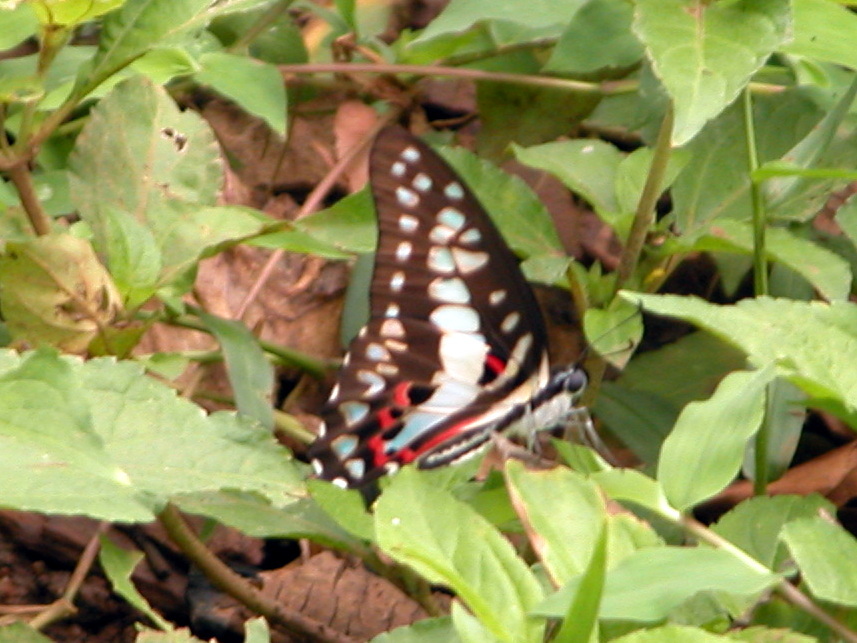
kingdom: Animalia
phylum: Arthropoda
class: Insecta
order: Lepidoptera
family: Papilionidae
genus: Graphium
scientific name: Graphium doson
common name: Common jay
